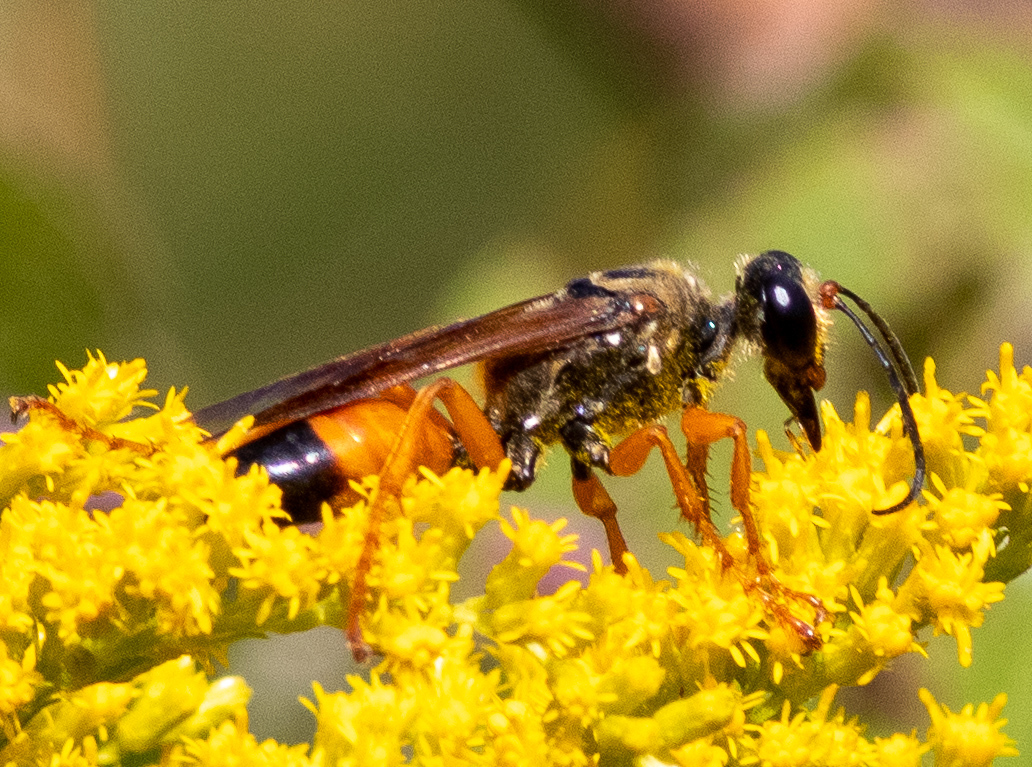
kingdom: Animalia
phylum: Arthropoda
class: Insecta
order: Hymenoptera
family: Sphecidae
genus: Sphex
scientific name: Sphex ichneumoneus
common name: Great golden digger wasp
